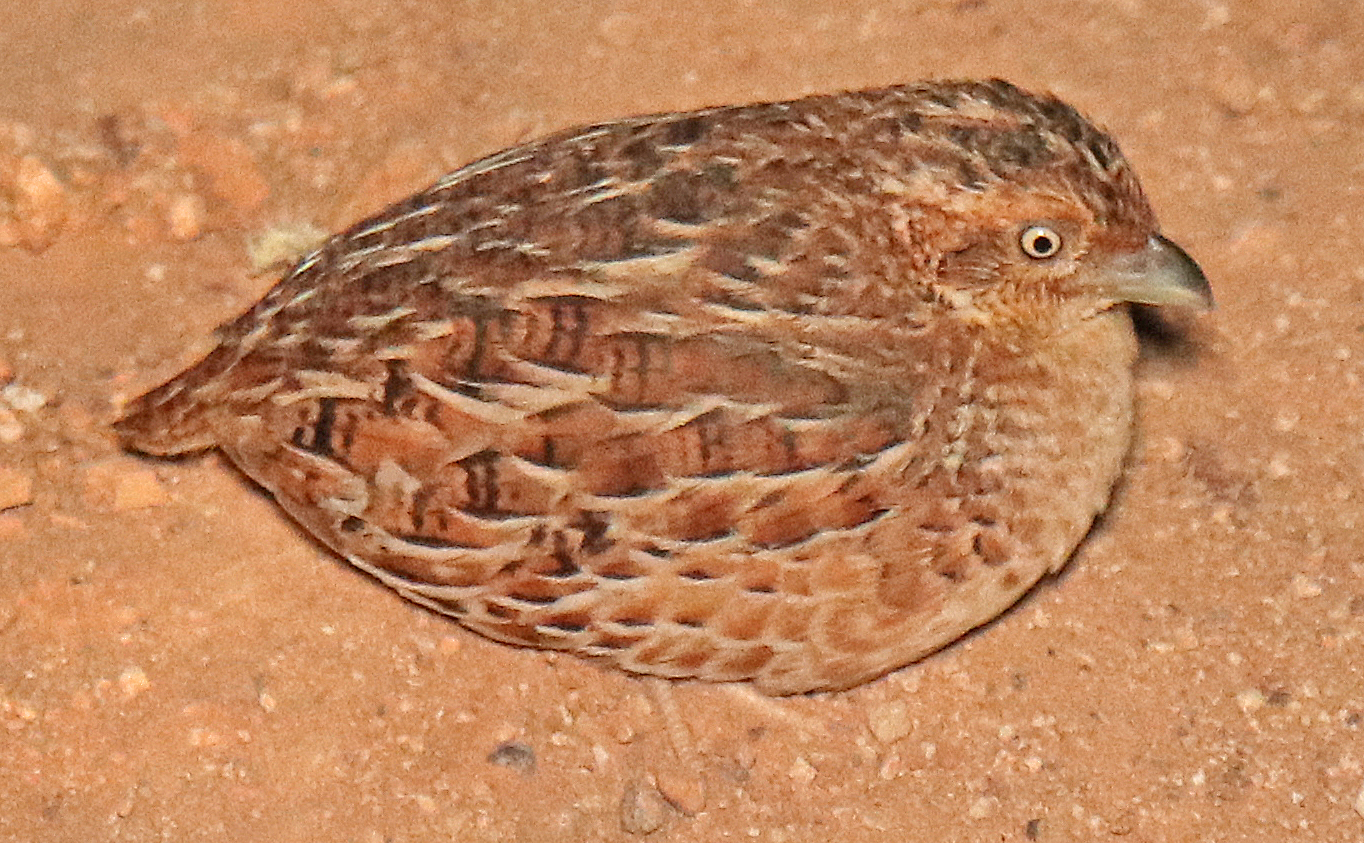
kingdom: Animalia
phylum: Chordata
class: Aves
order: Charadriiformes
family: Turnicidae
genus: Turnix
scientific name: Turnix velox
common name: Little buttonquail
